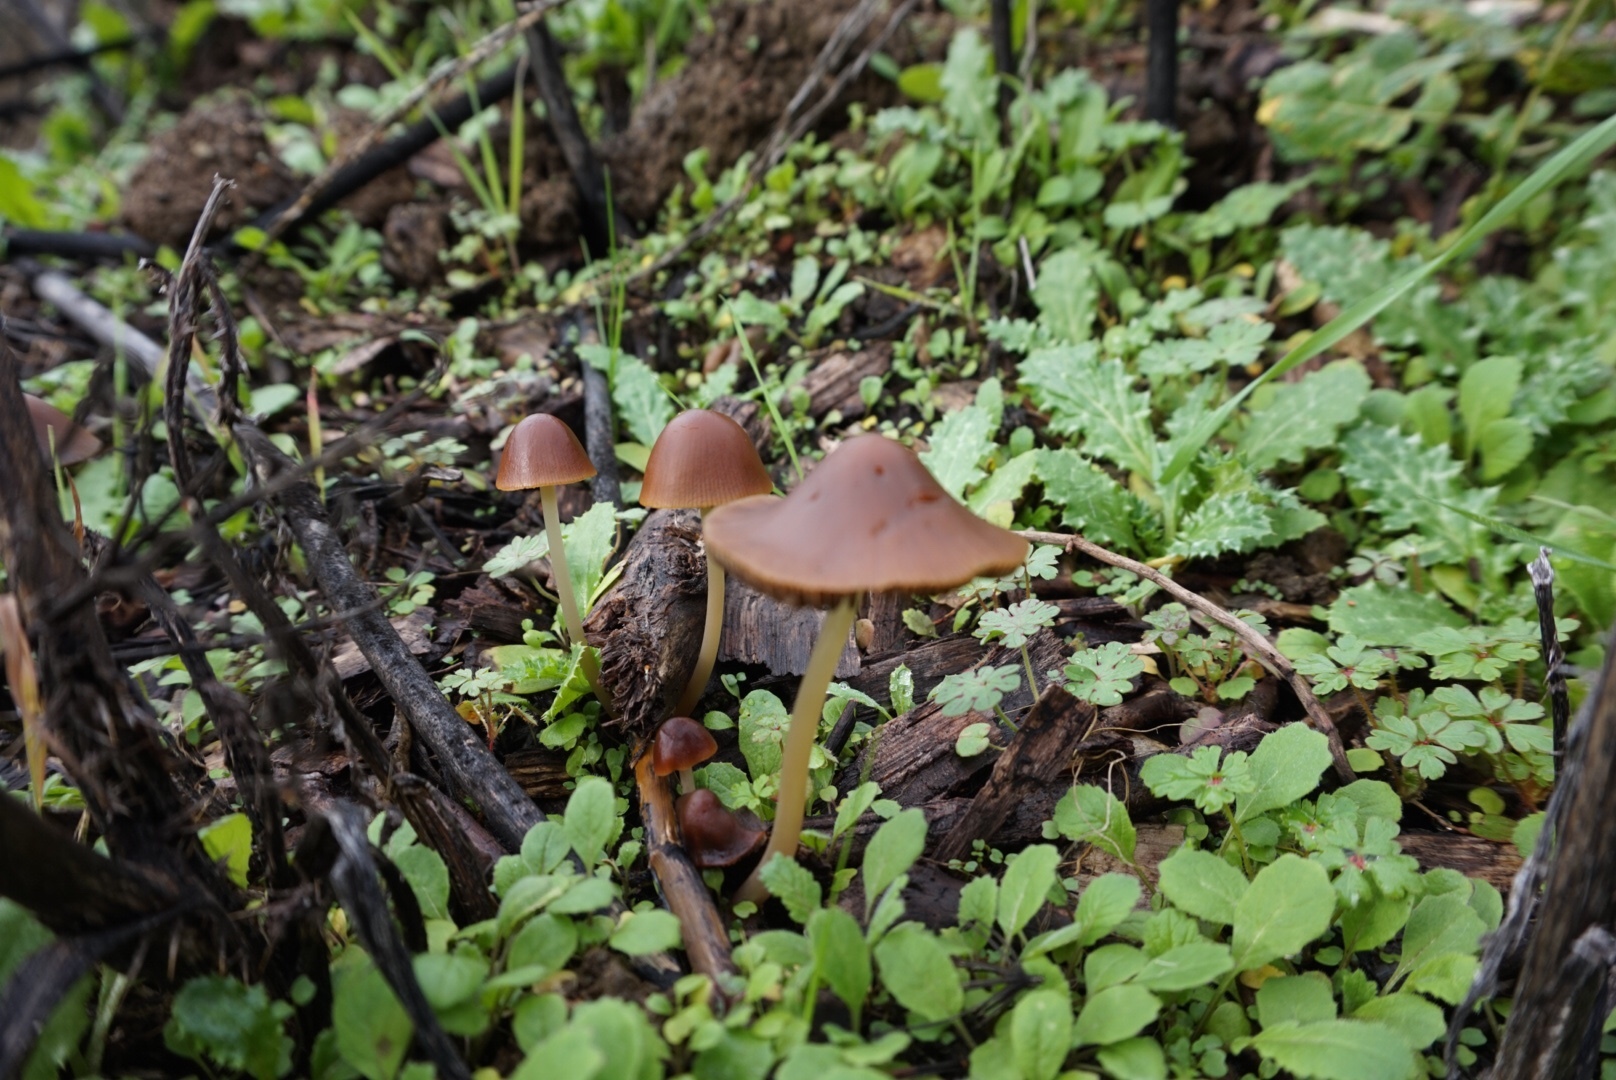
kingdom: Fungi
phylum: Basidiomycota
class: Agaricomycetes
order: Agaricales
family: Psathyrellaceae
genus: Psathyrella
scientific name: Psathyrella atrospora
